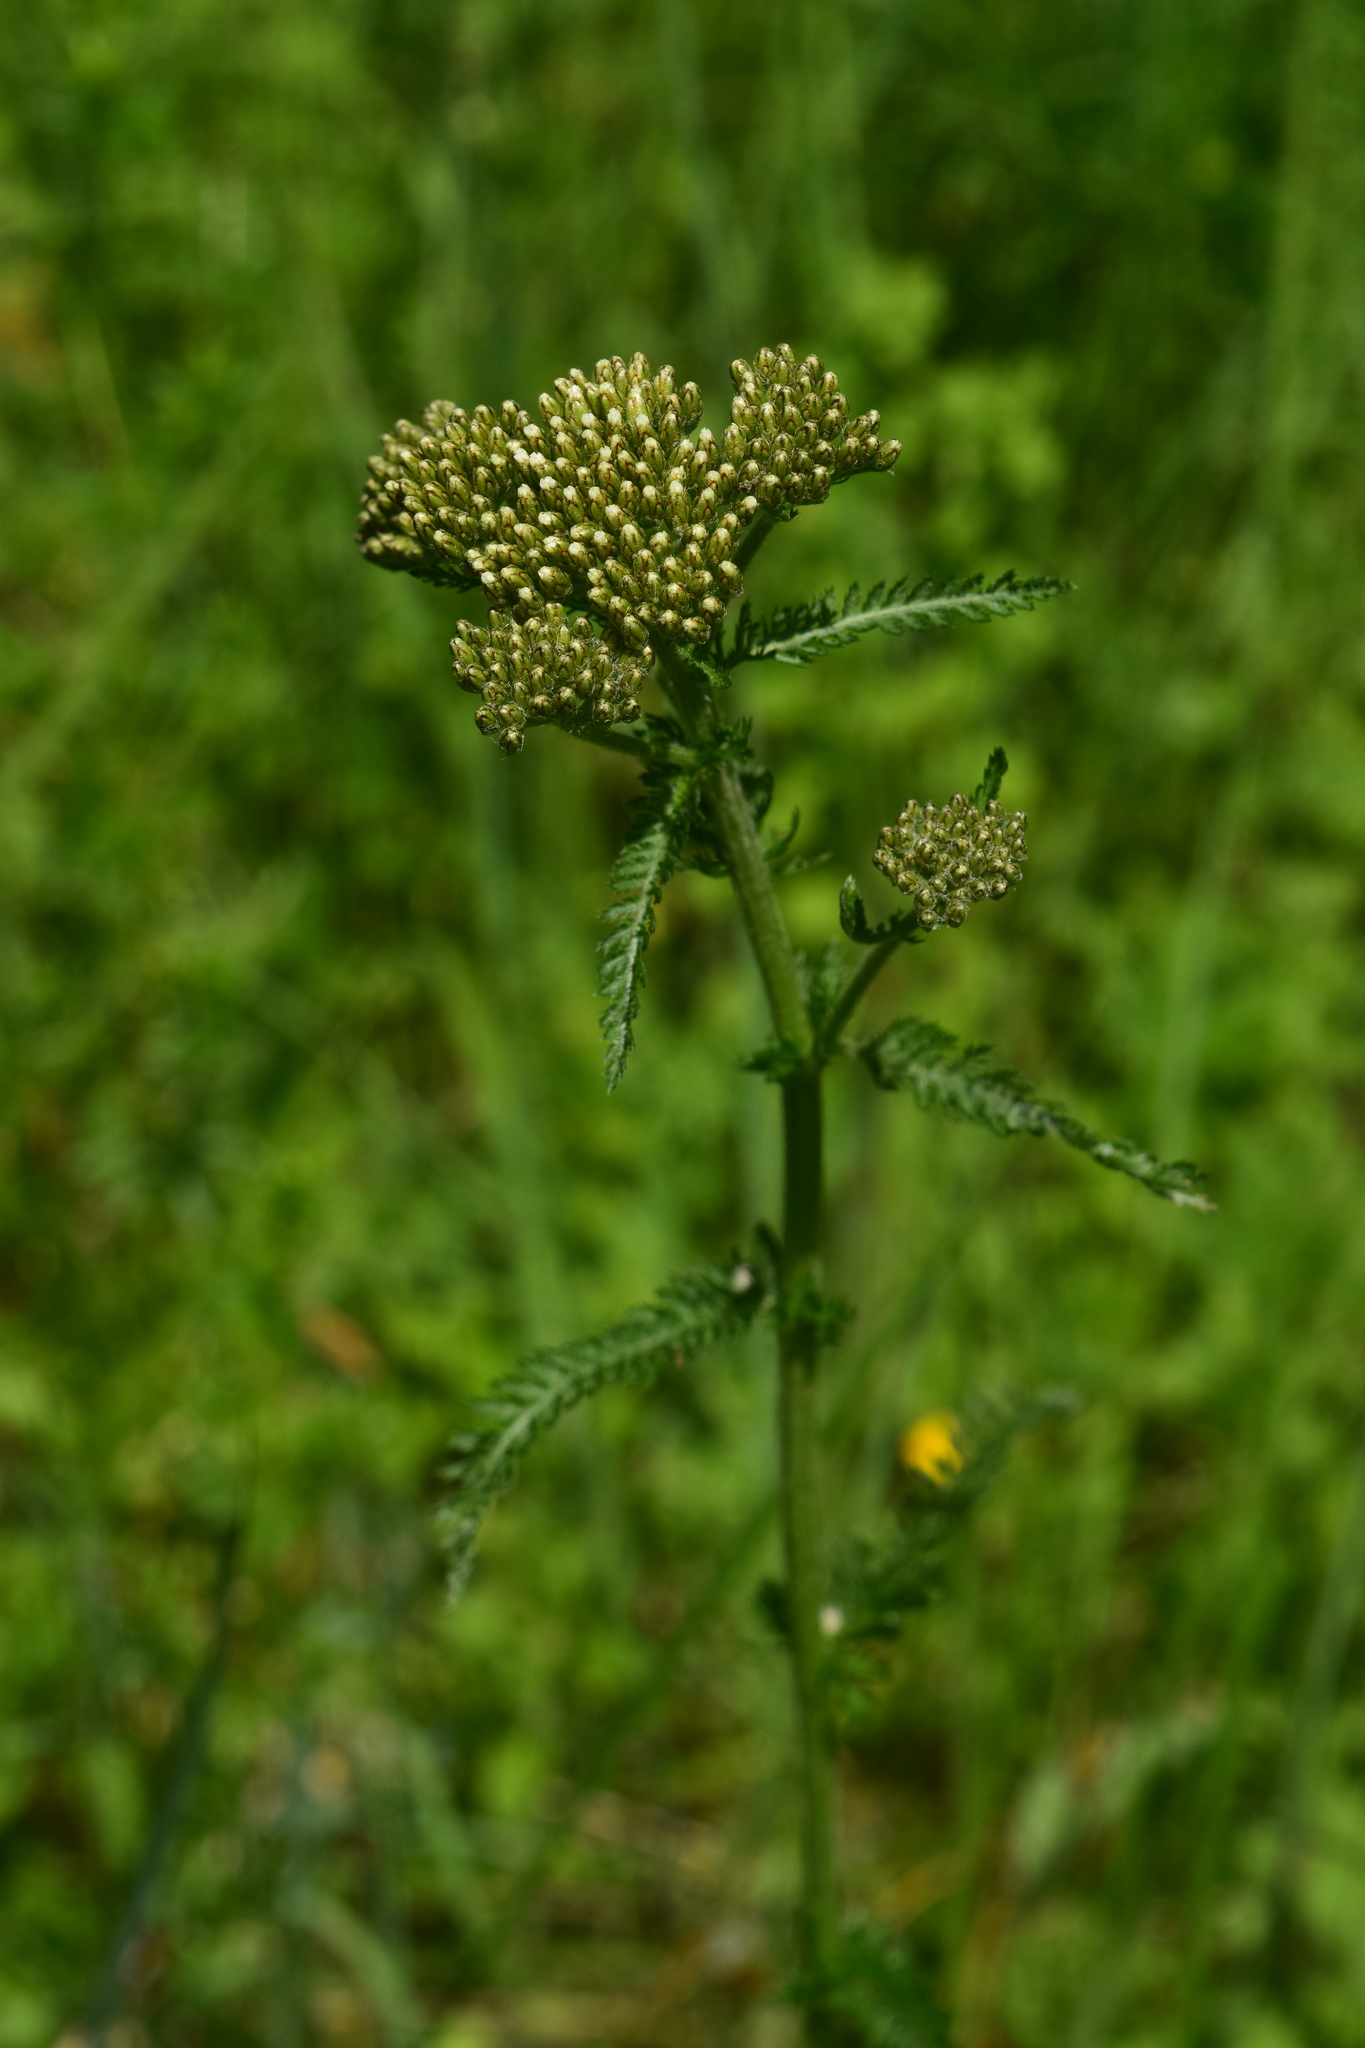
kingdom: Plantae
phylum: Tracheophyta
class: Magnoliopsida
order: Asterales
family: Asteraceae
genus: Achillea
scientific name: Achillea millefolium
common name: Yarrow
